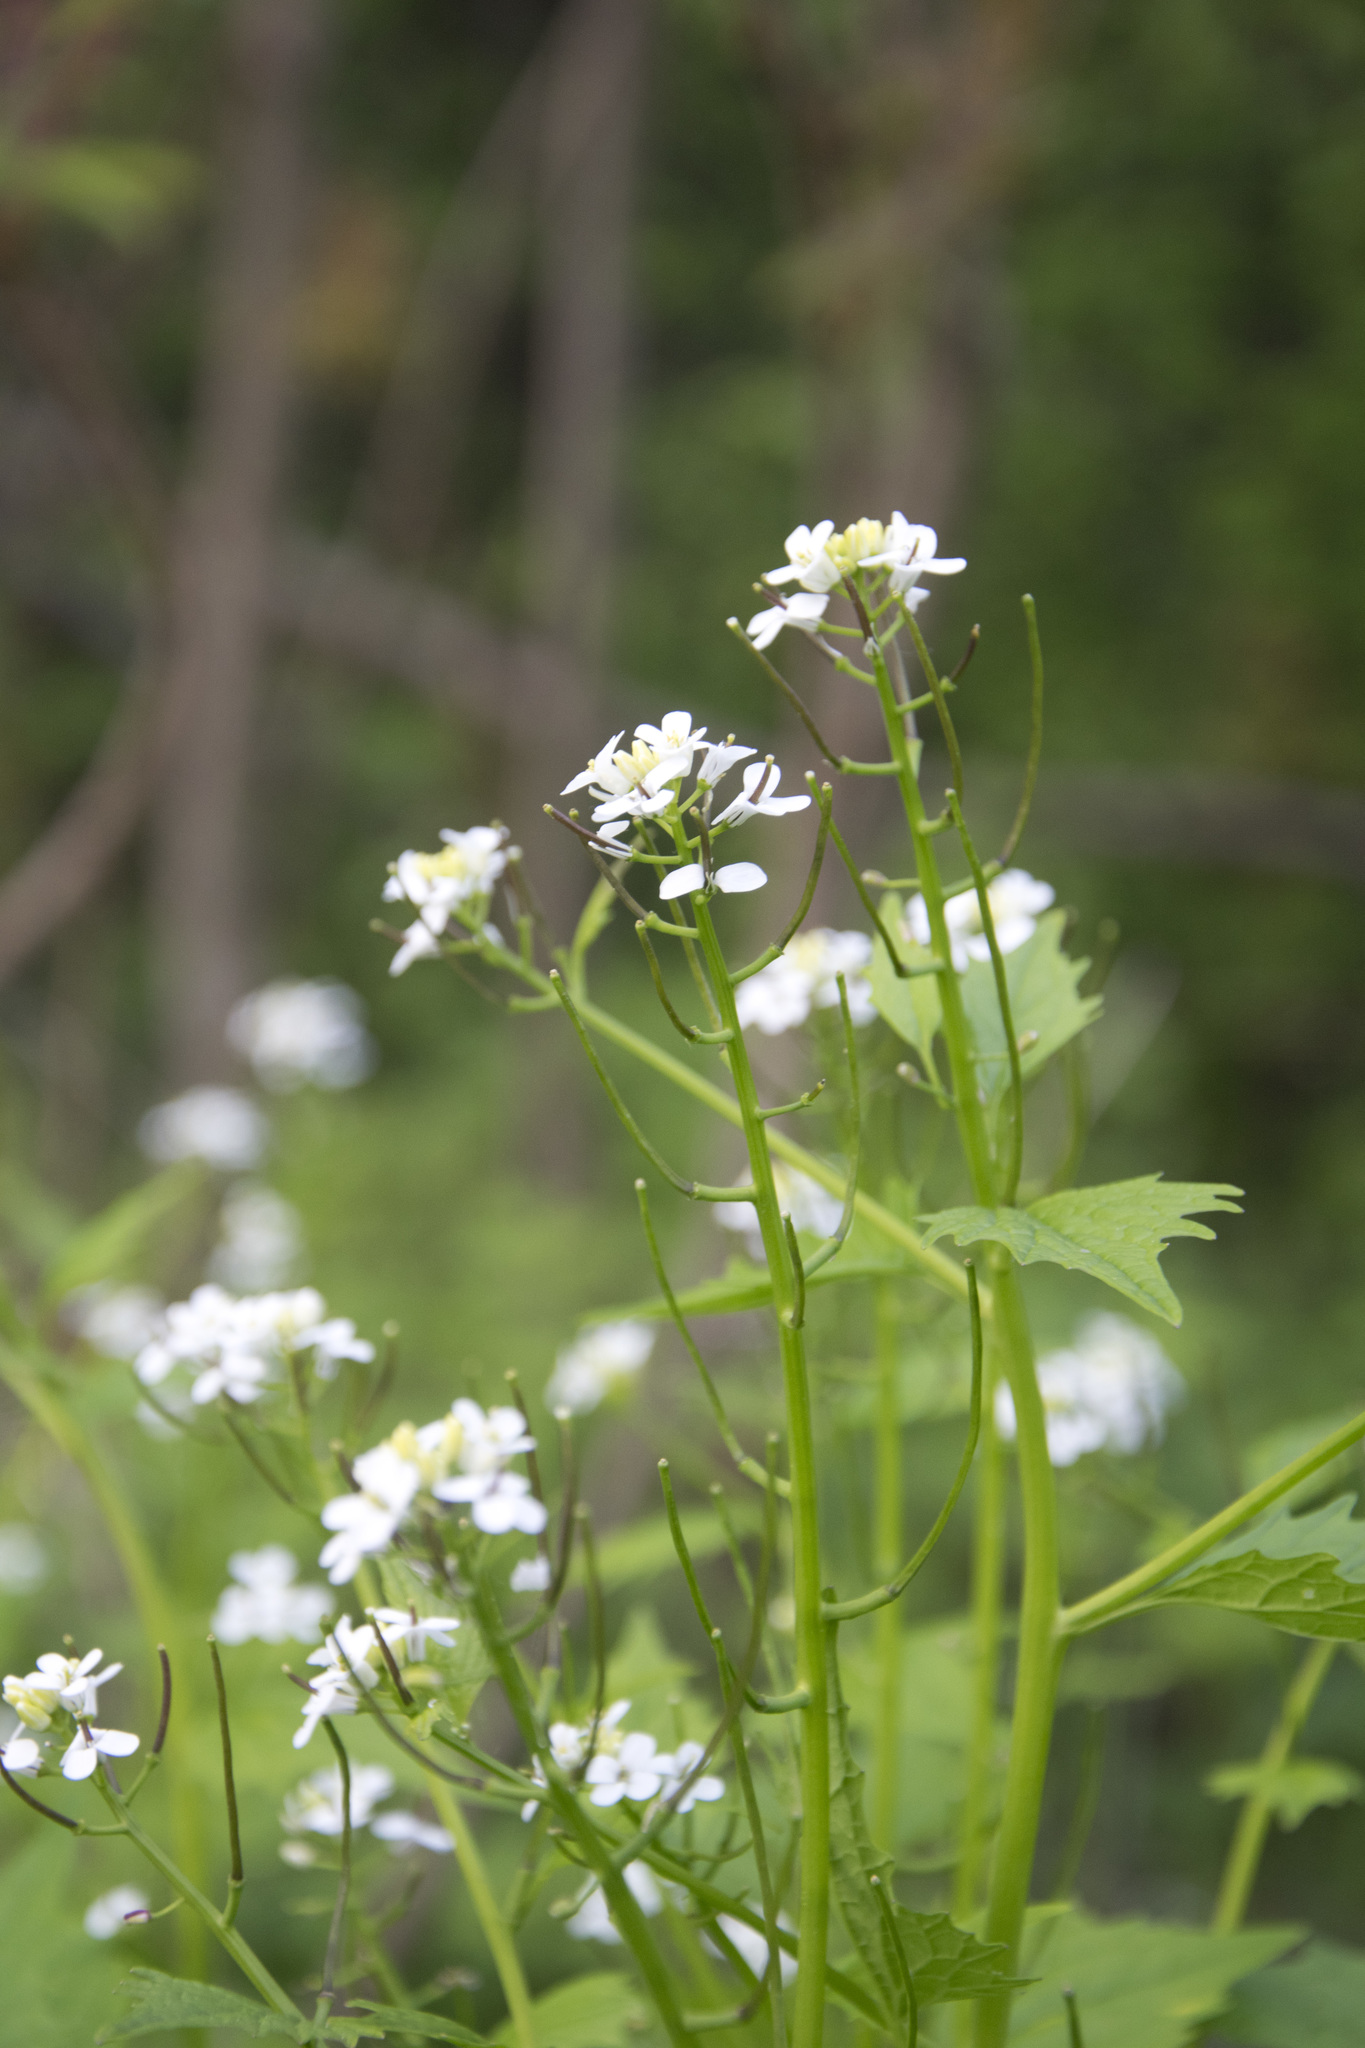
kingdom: Plantae
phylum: Tracheophyta
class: Magnoliopsida
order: Brassicales
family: Brassicaceae
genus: Alliaria
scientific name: Alliaria petiolata
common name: Garlic mustard
